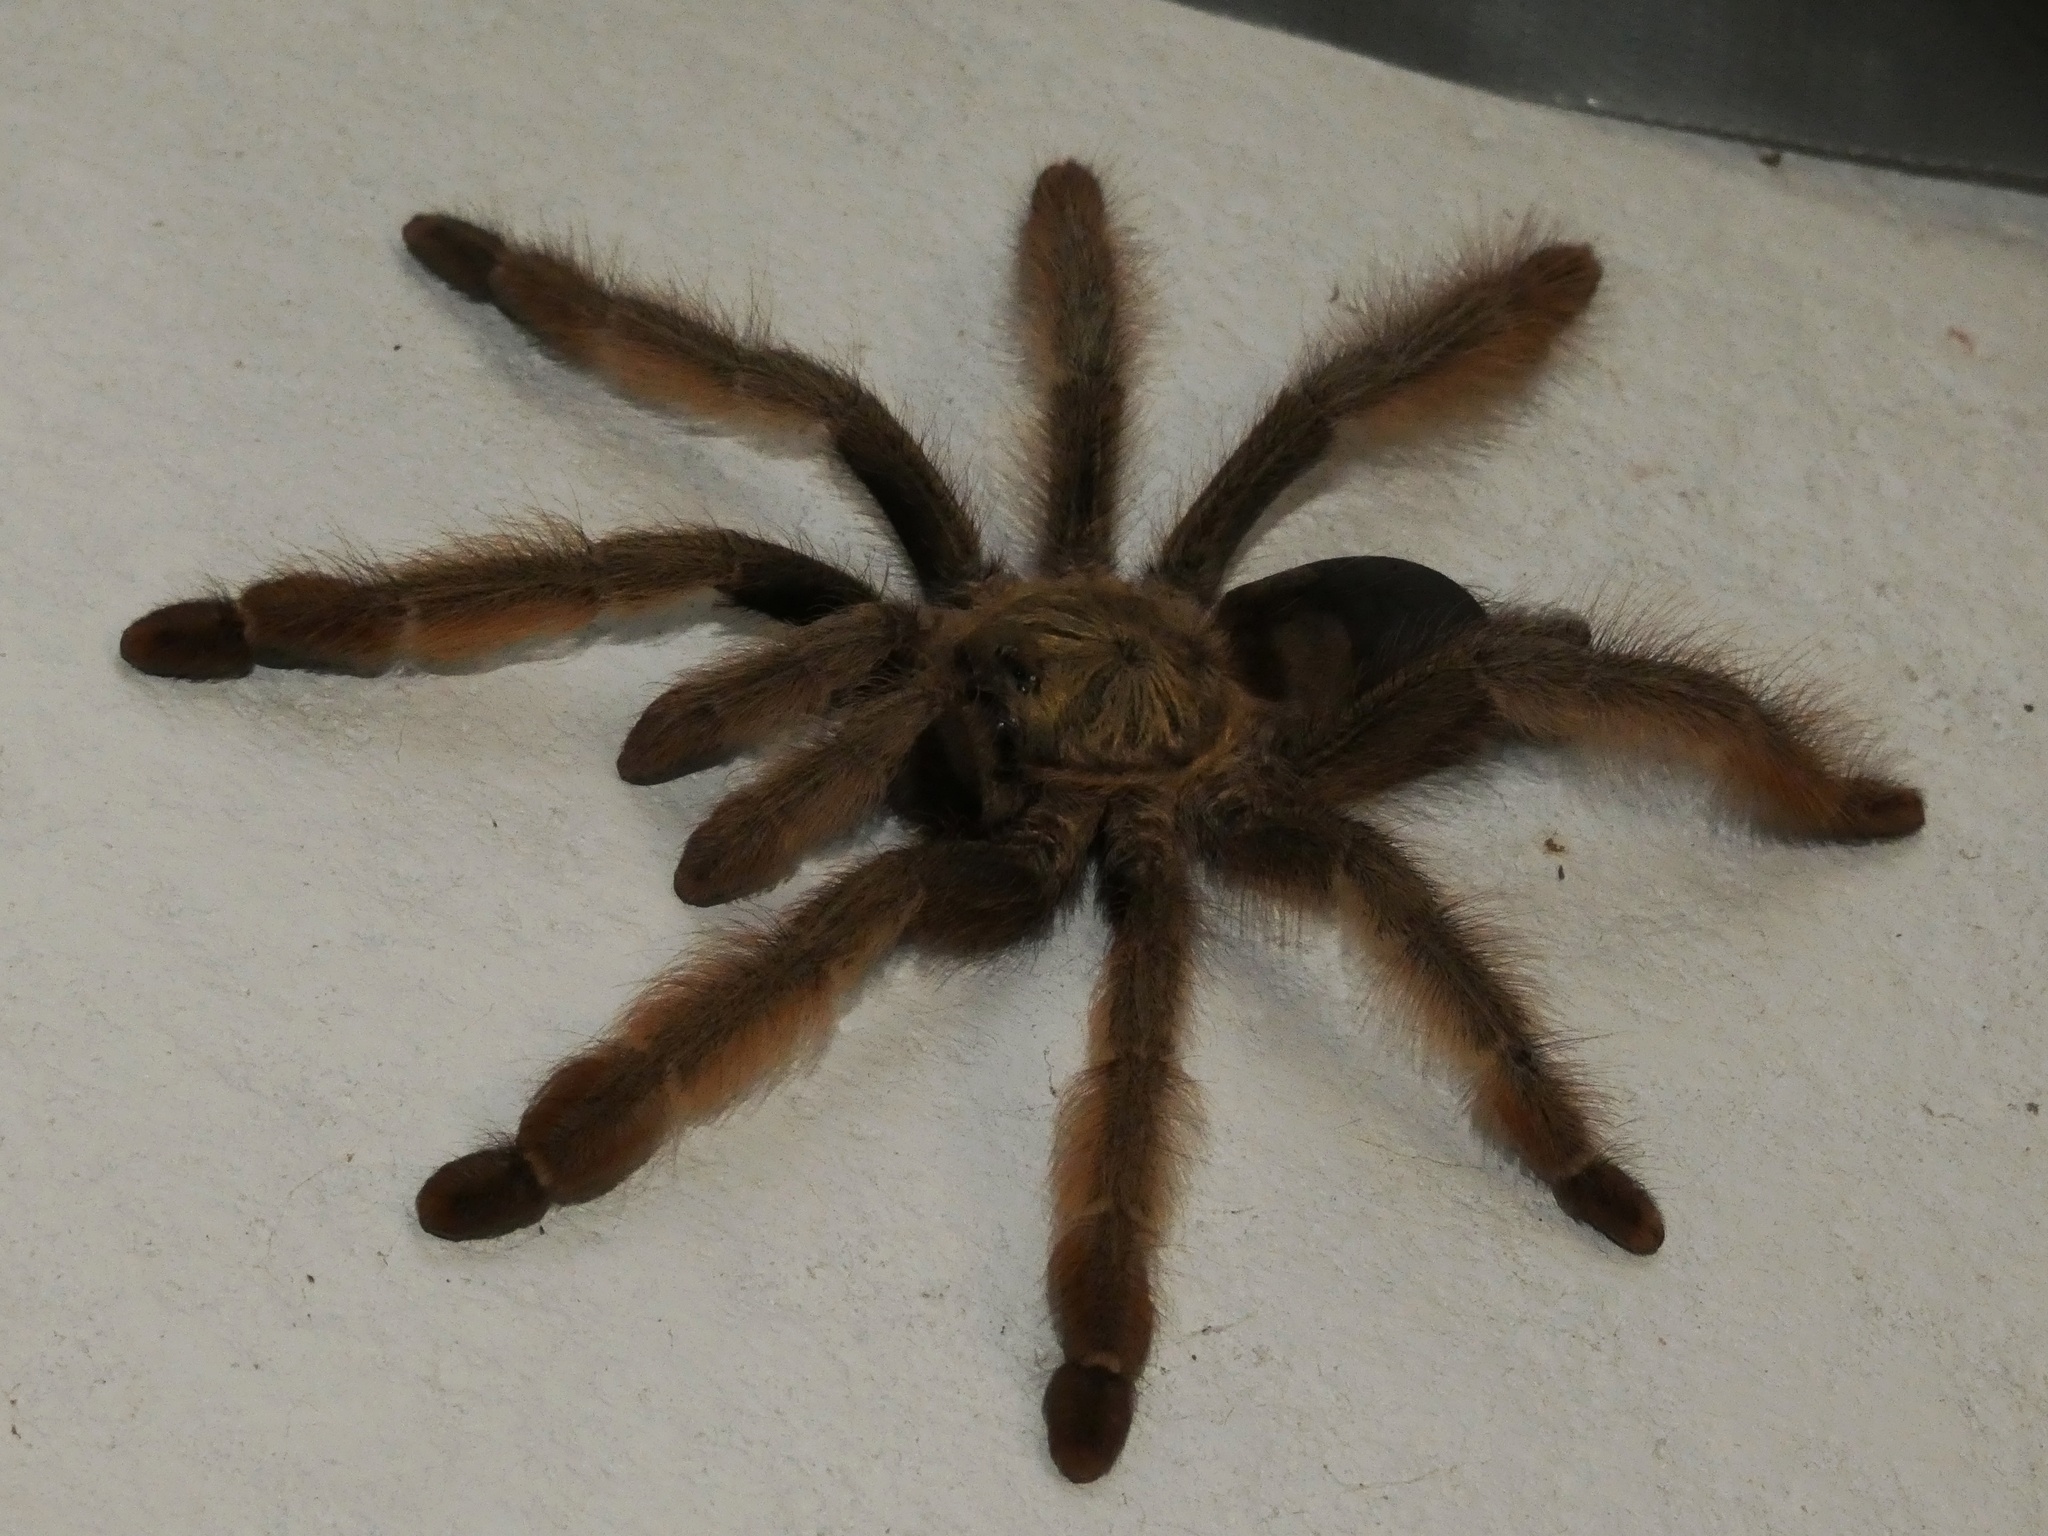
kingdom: Animalia
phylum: Arthropoda
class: Arachnida
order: Araneae
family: Theraphosidae
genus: Psalmopoeus
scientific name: Psalmopoeus pulcher
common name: Tarantula spiders
